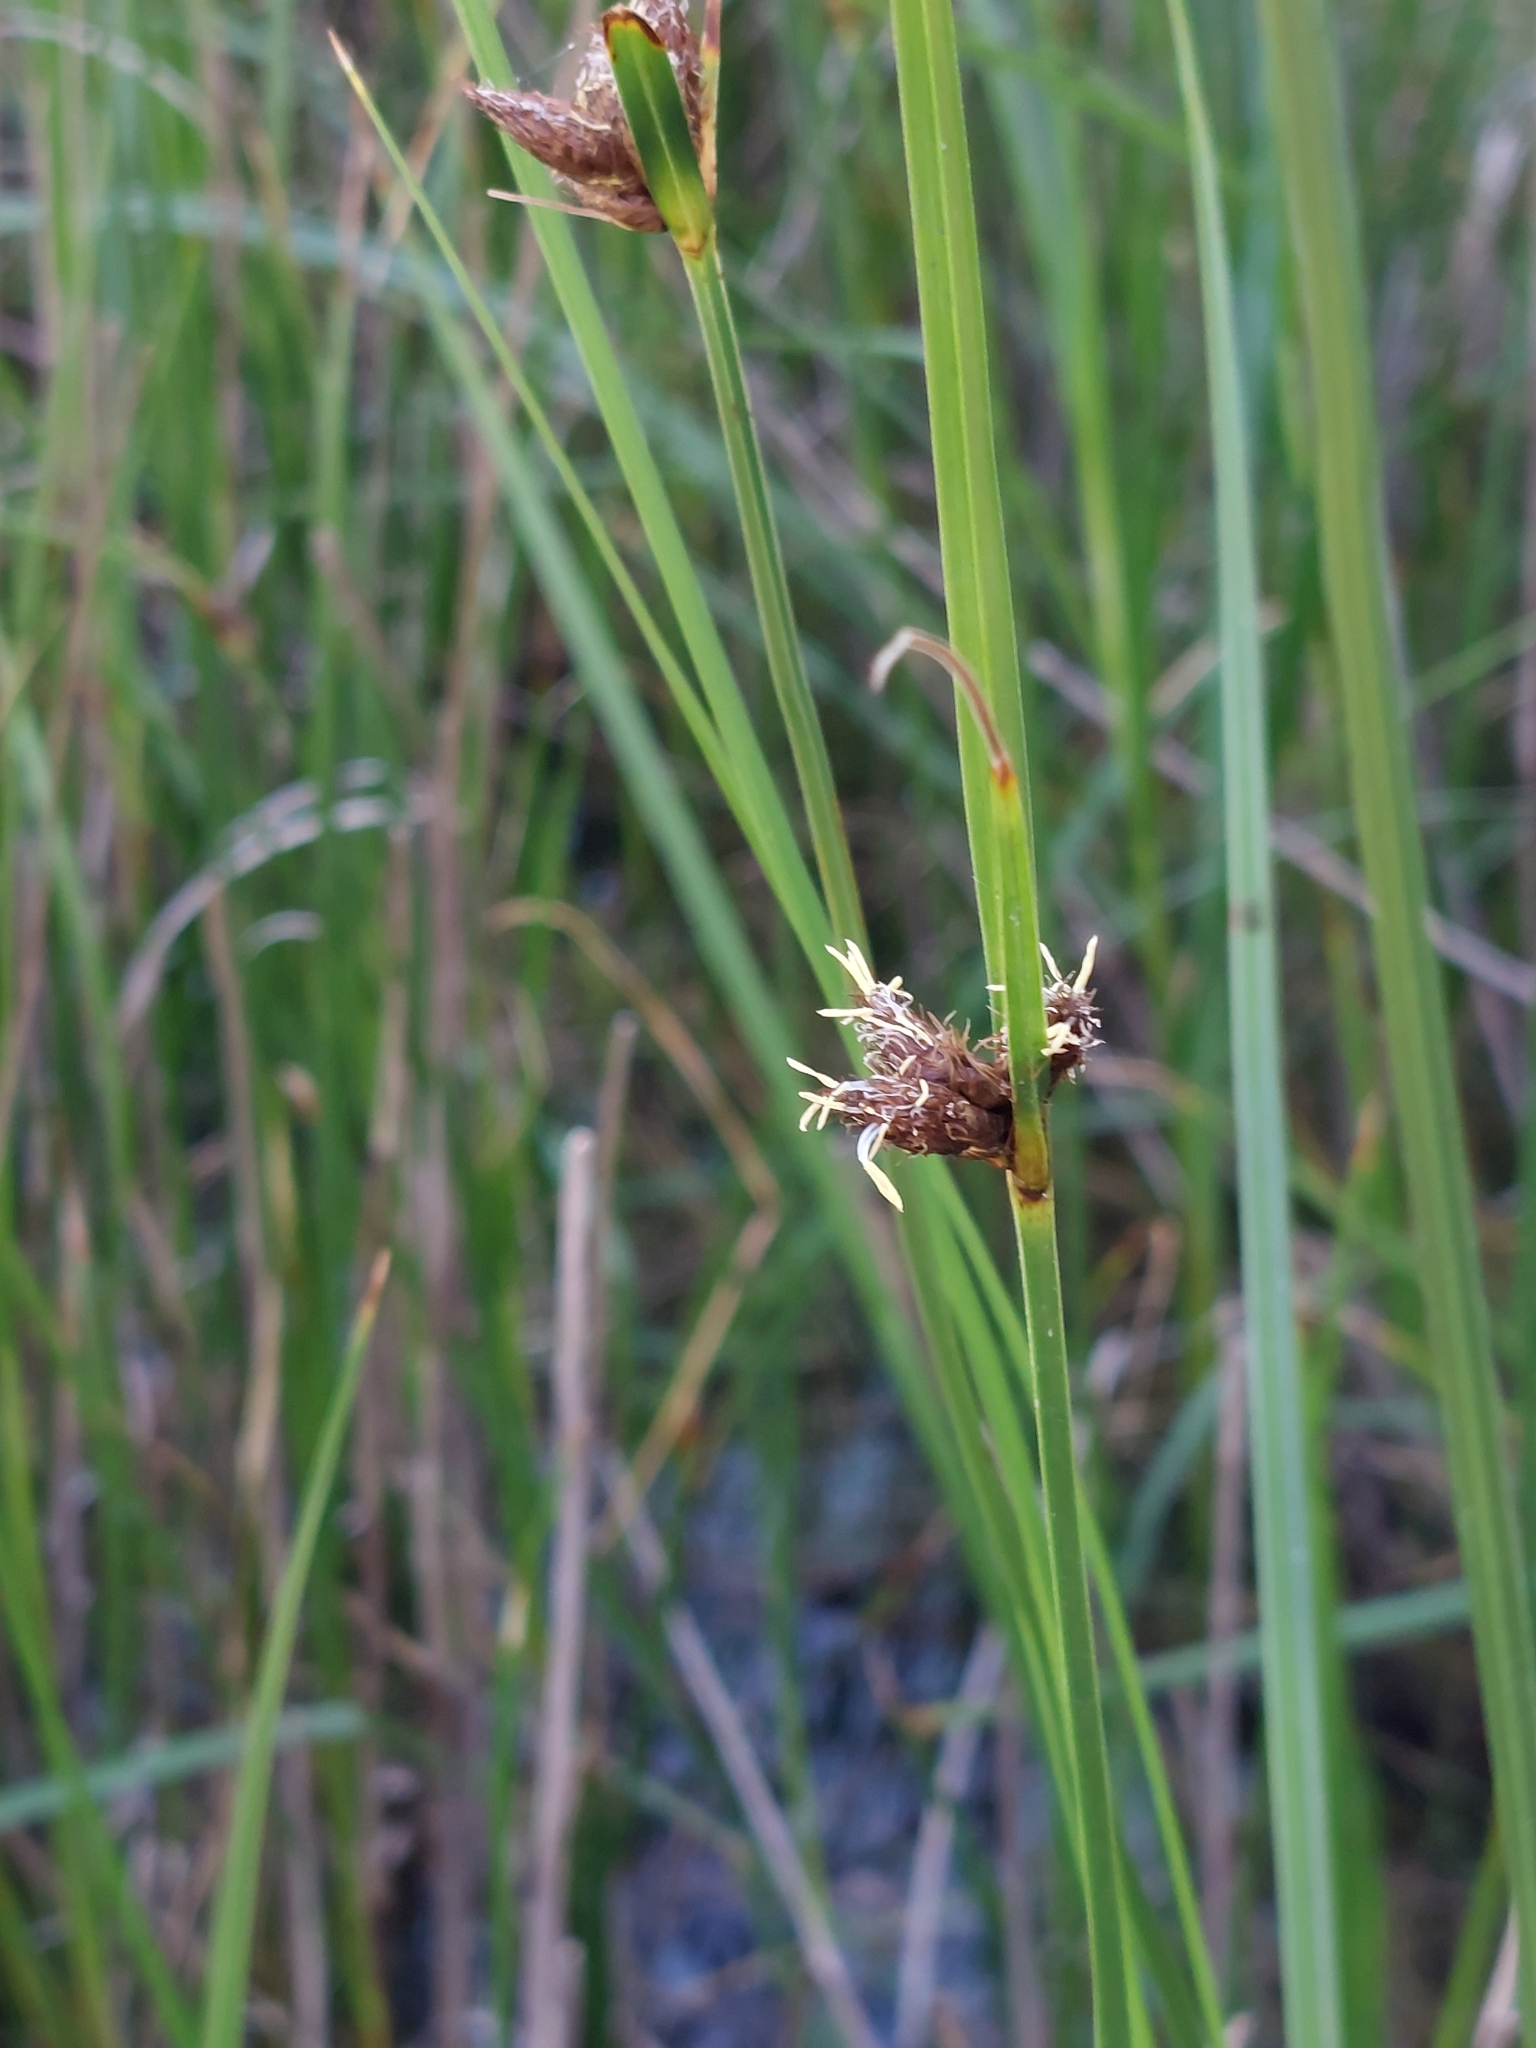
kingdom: Plantae
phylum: Tracheophyta
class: Liliopsida
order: Poales
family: Cyperaceae
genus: Bolboschoenus
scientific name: Bolboschoenus maritimus
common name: Sea club-rush
